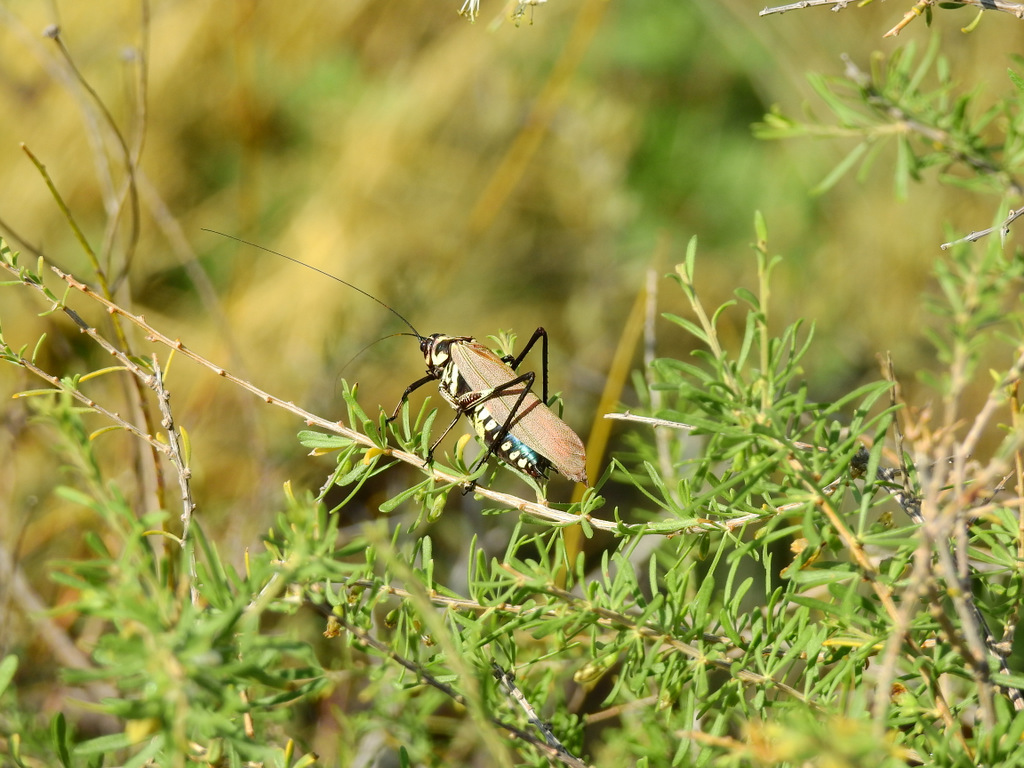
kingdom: Animalia
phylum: Arthropoda
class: Insecta
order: Orthoptera
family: Tettigoniidae
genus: Scaphura
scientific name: Scaphura elegans
